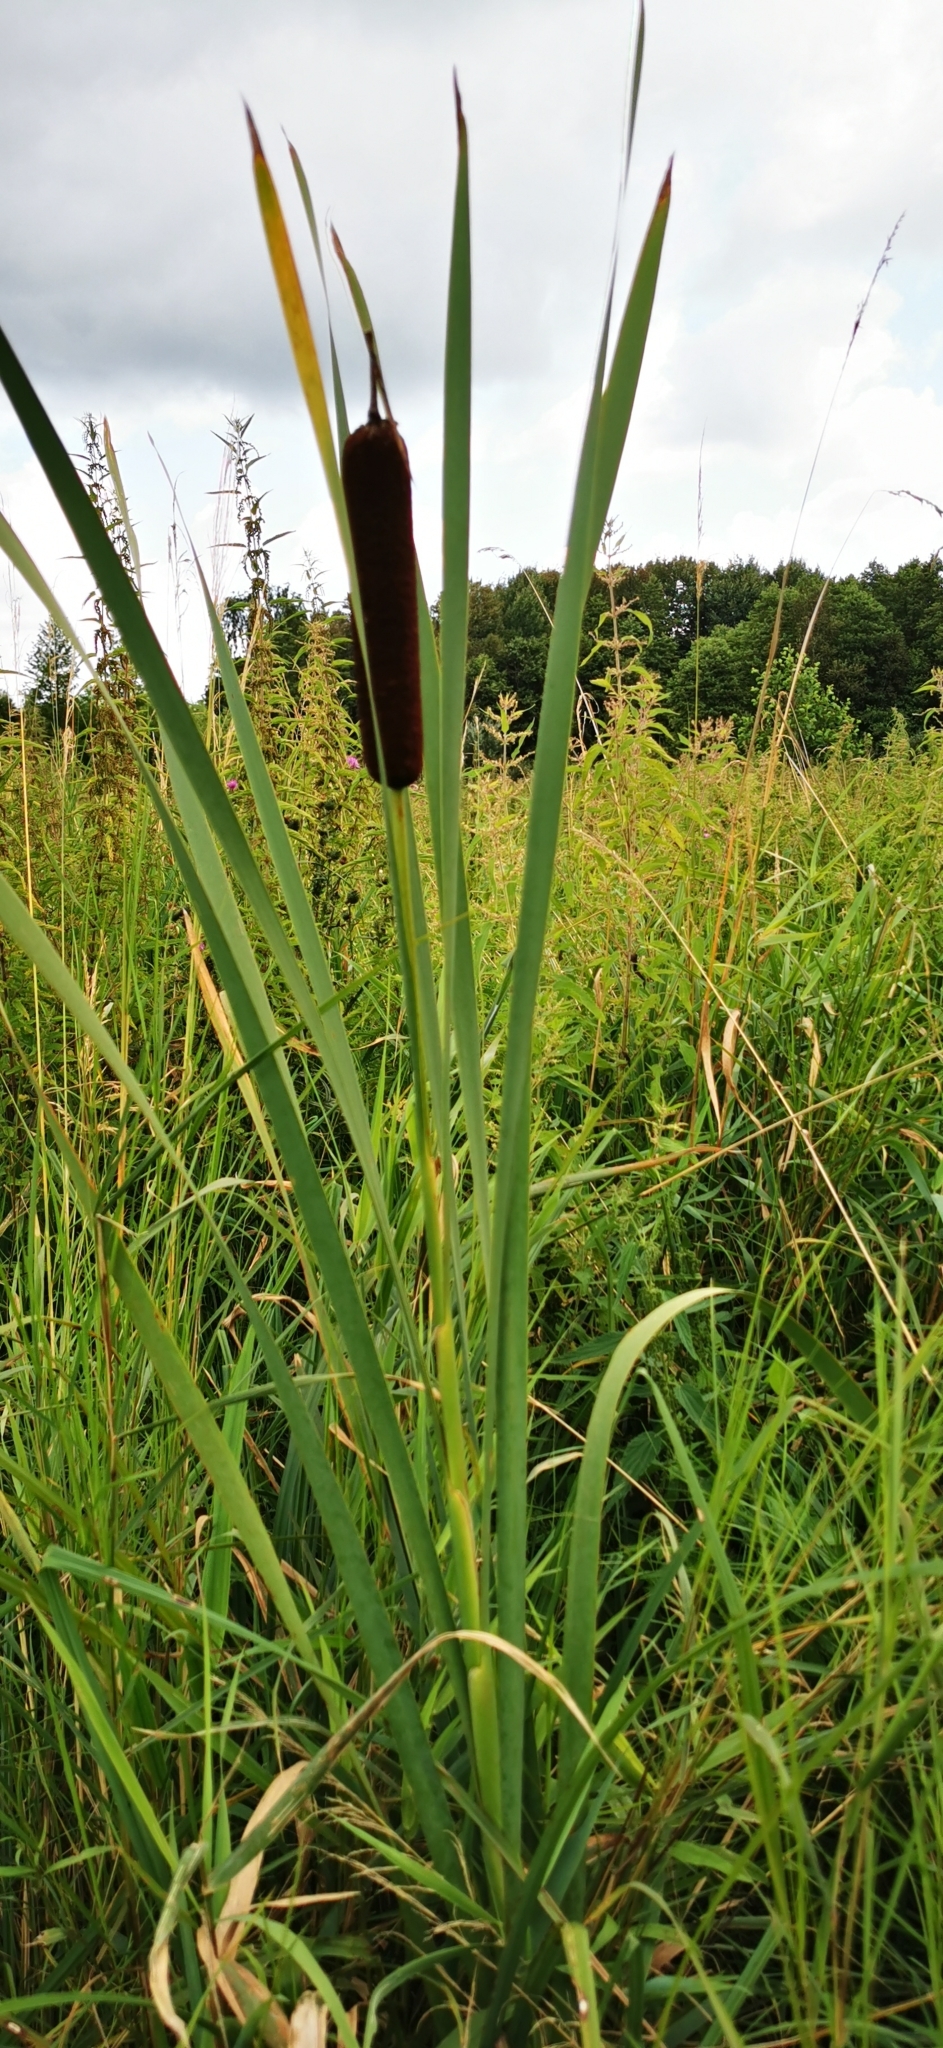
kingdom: Plantae
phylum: Tracheophyta
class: Liliopsida
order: Poales
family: Typhaceae
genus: Typha
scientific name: Typha latifolia
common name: Broadleaf cattail
